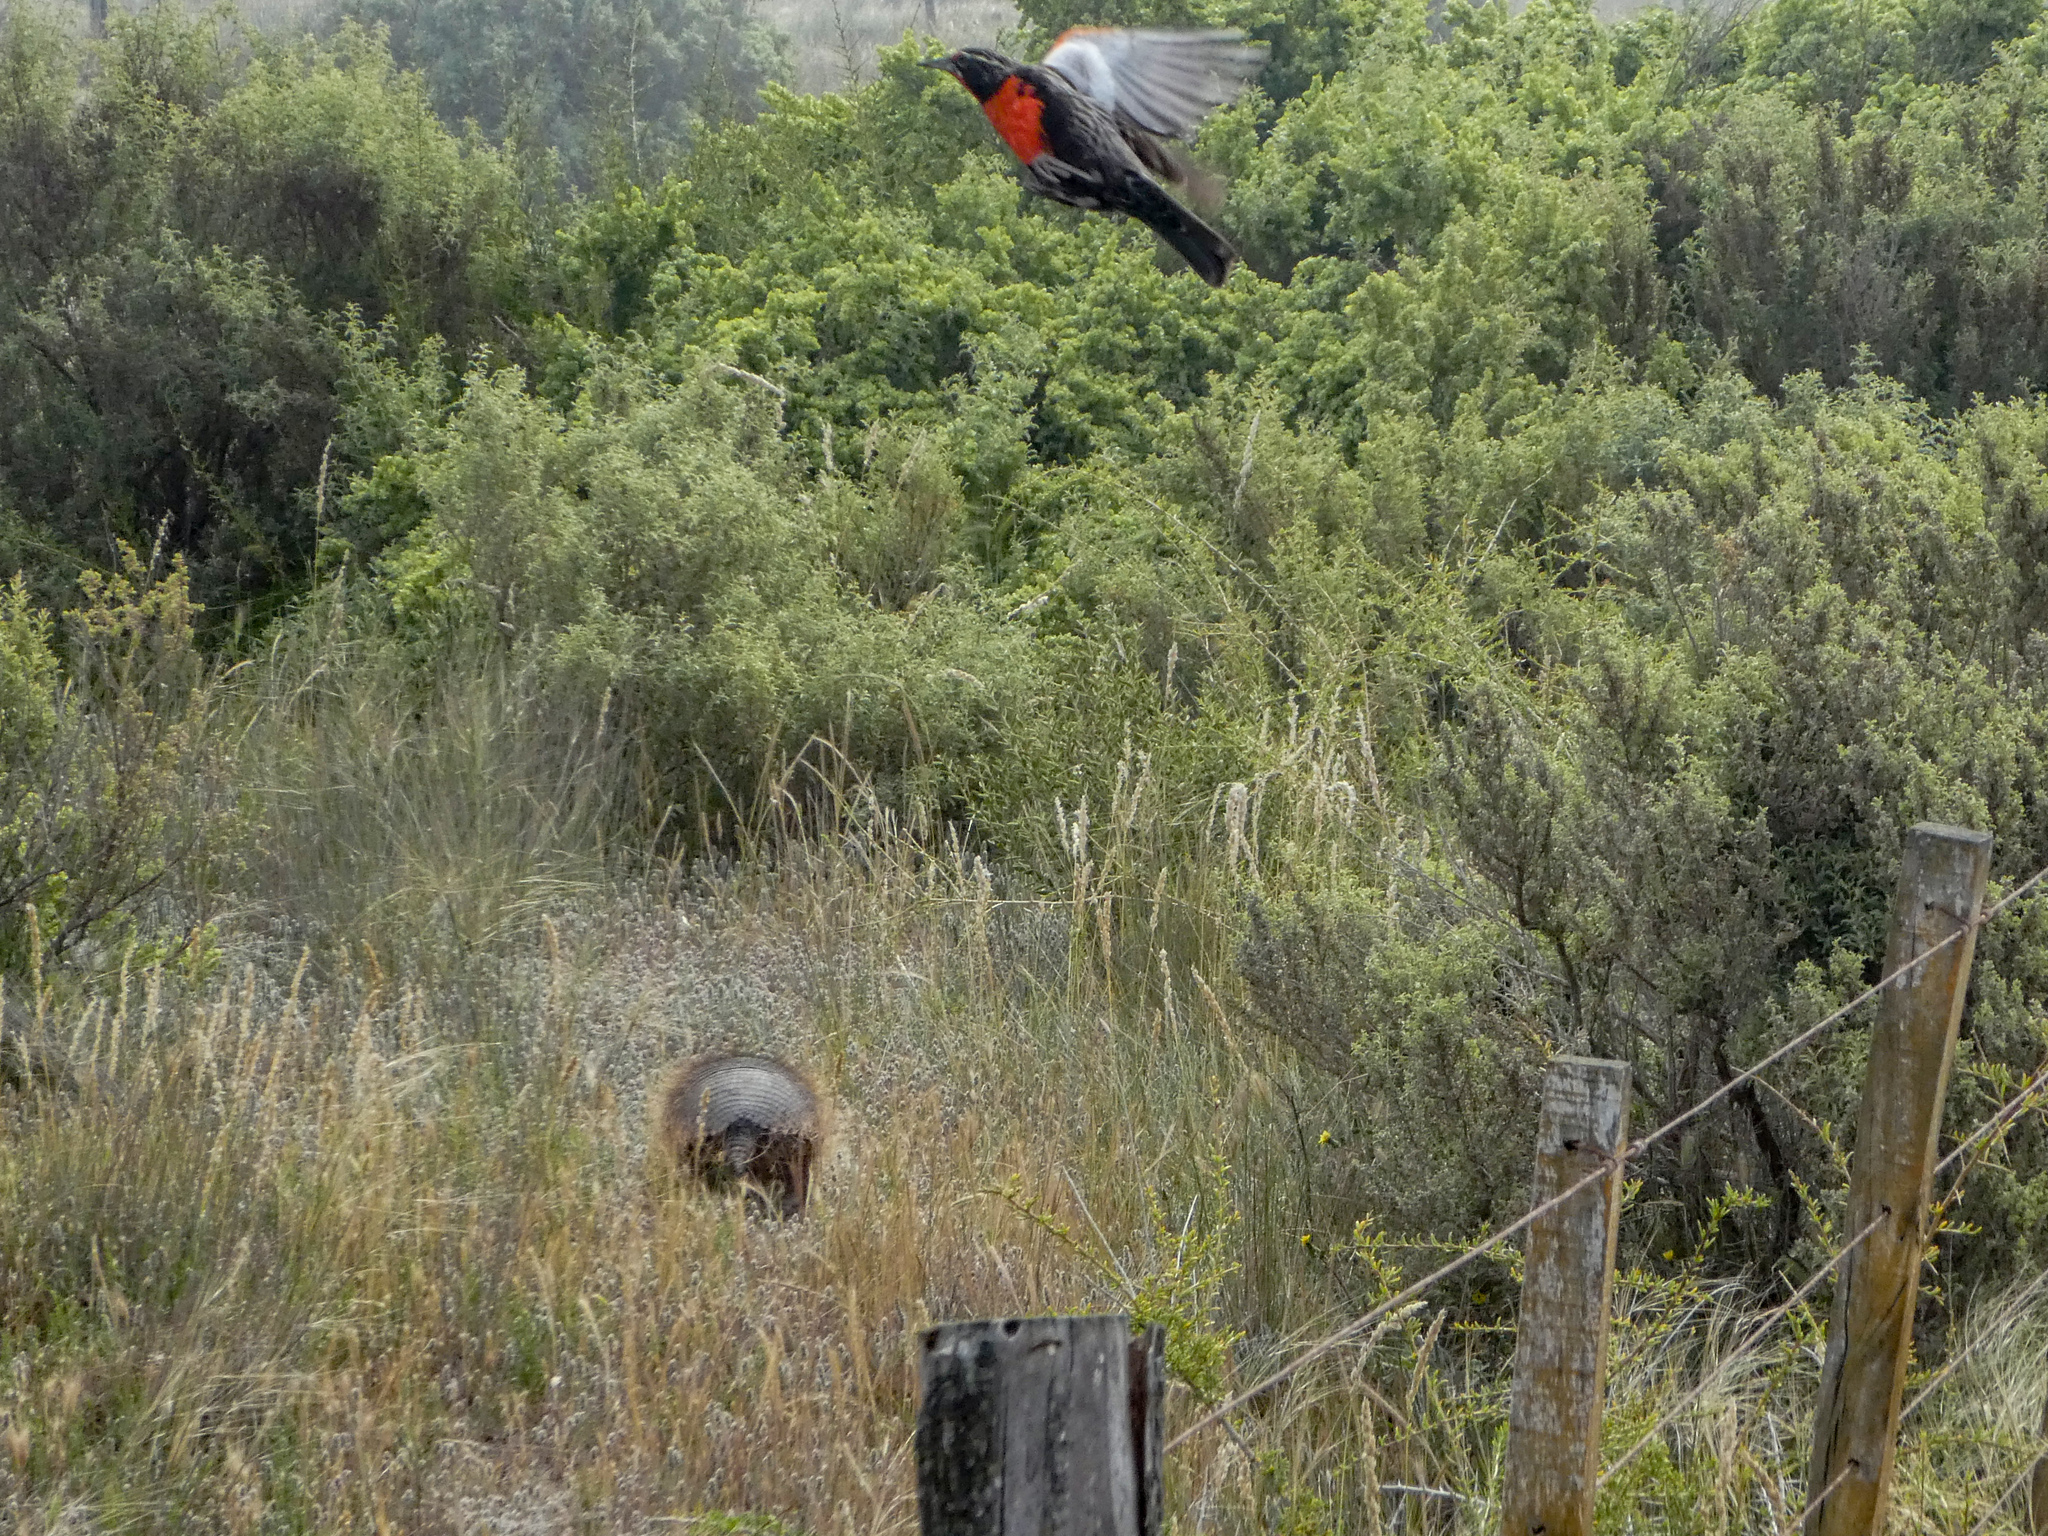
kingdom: Animalia
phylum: Chordata
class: Aves
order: Passeriformes
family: Icteridae
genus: Sturnella
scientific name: Sturnella loyca
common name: Long-tailed meadowlark
